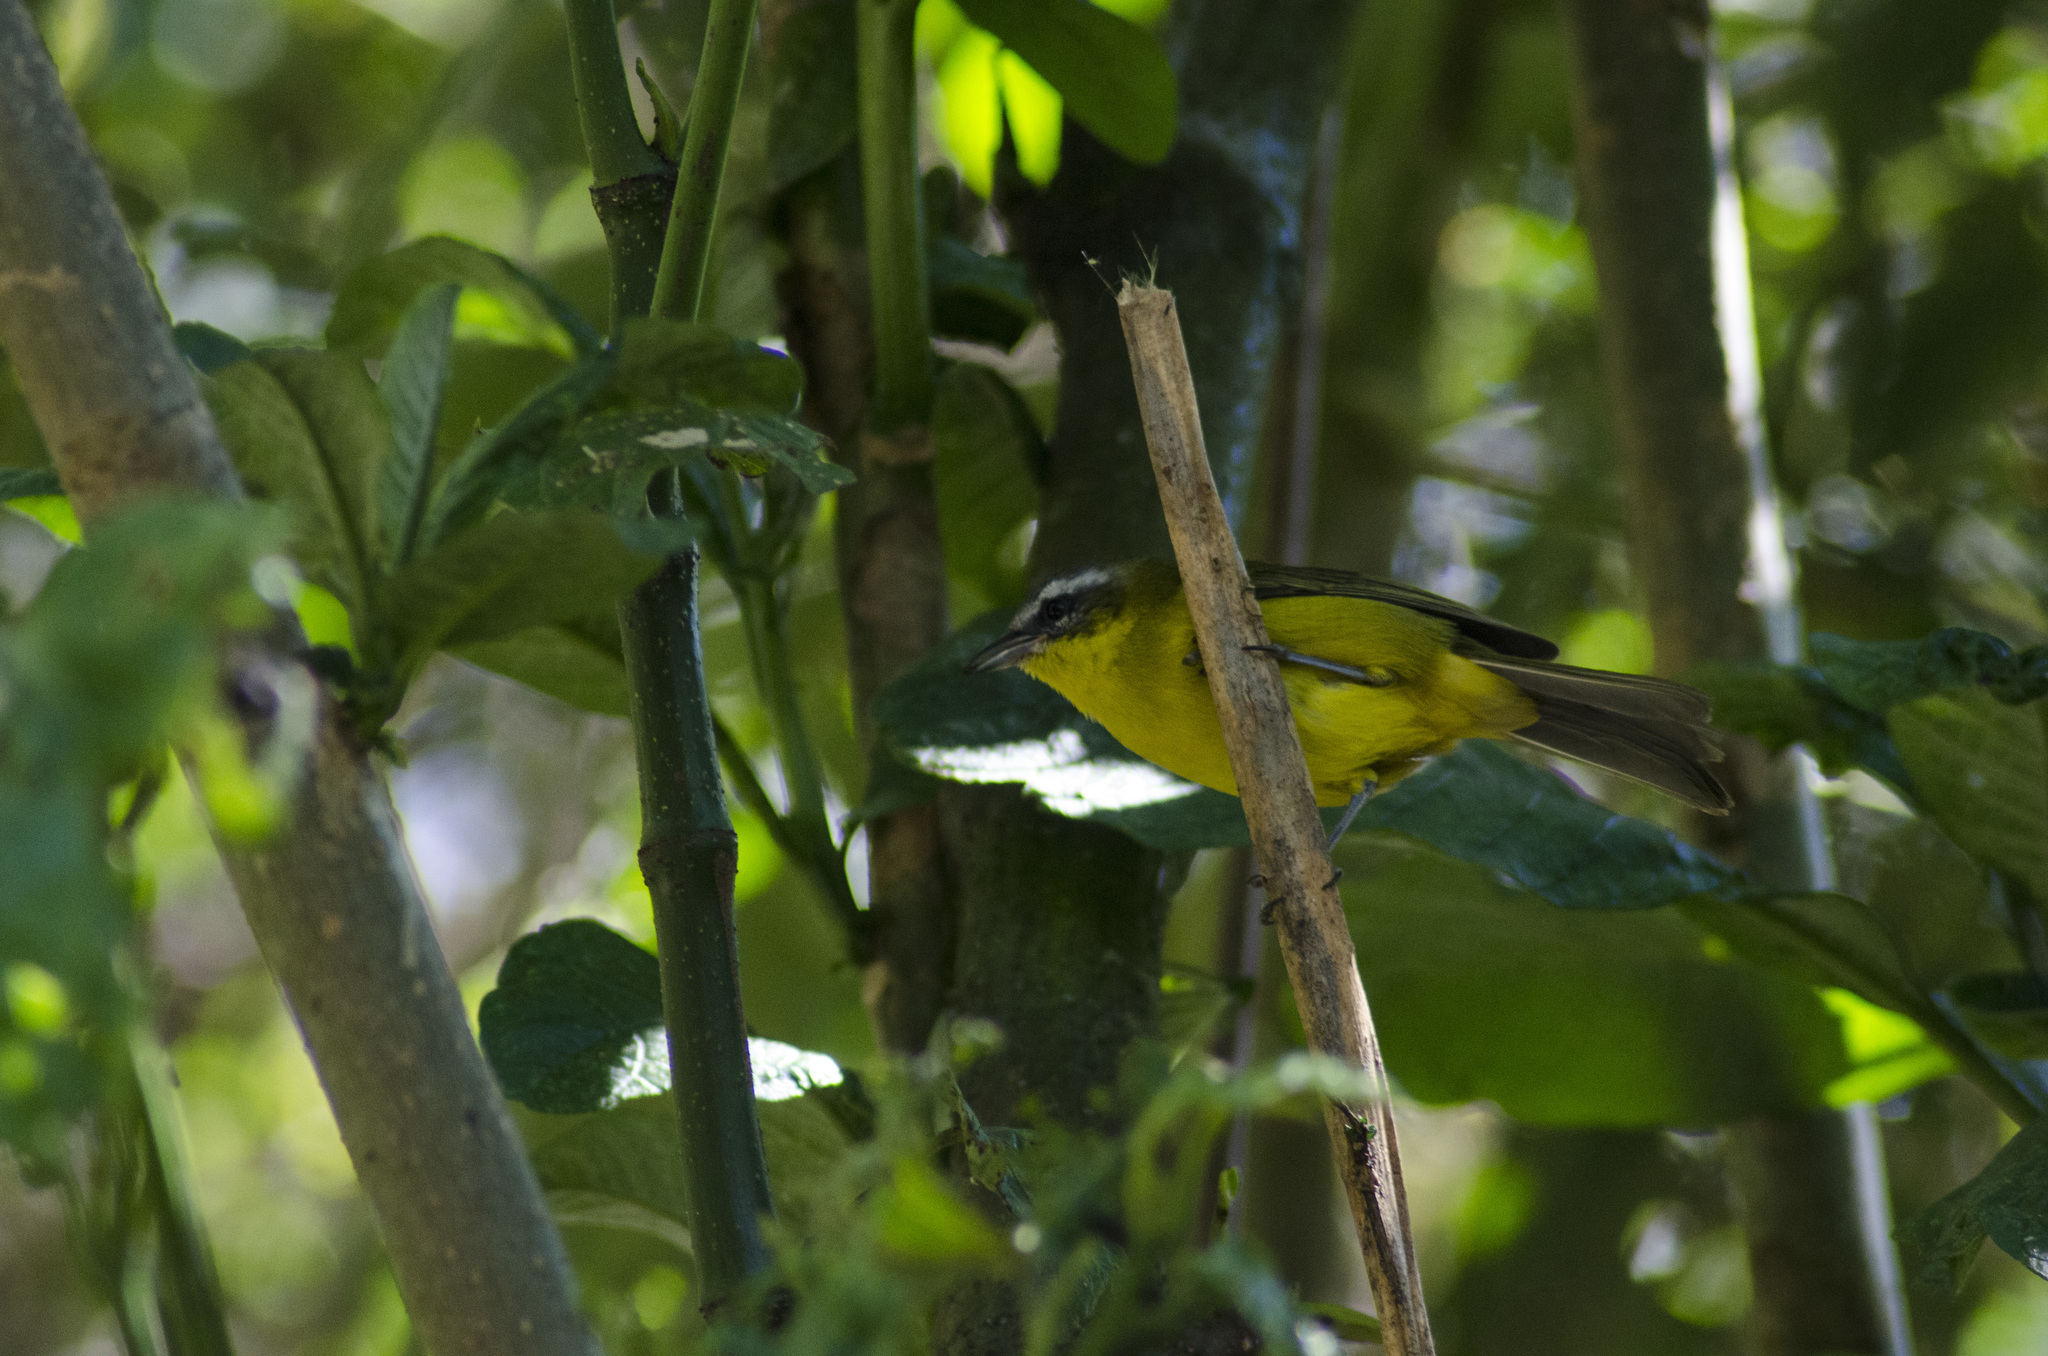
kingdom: Animalia
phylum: Chordata
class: Aves
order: Passeriformes
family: Thraupidae
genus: Thlypopsis
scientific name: Thlypopsis superciliaris
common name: Superciliaried hemispingus
